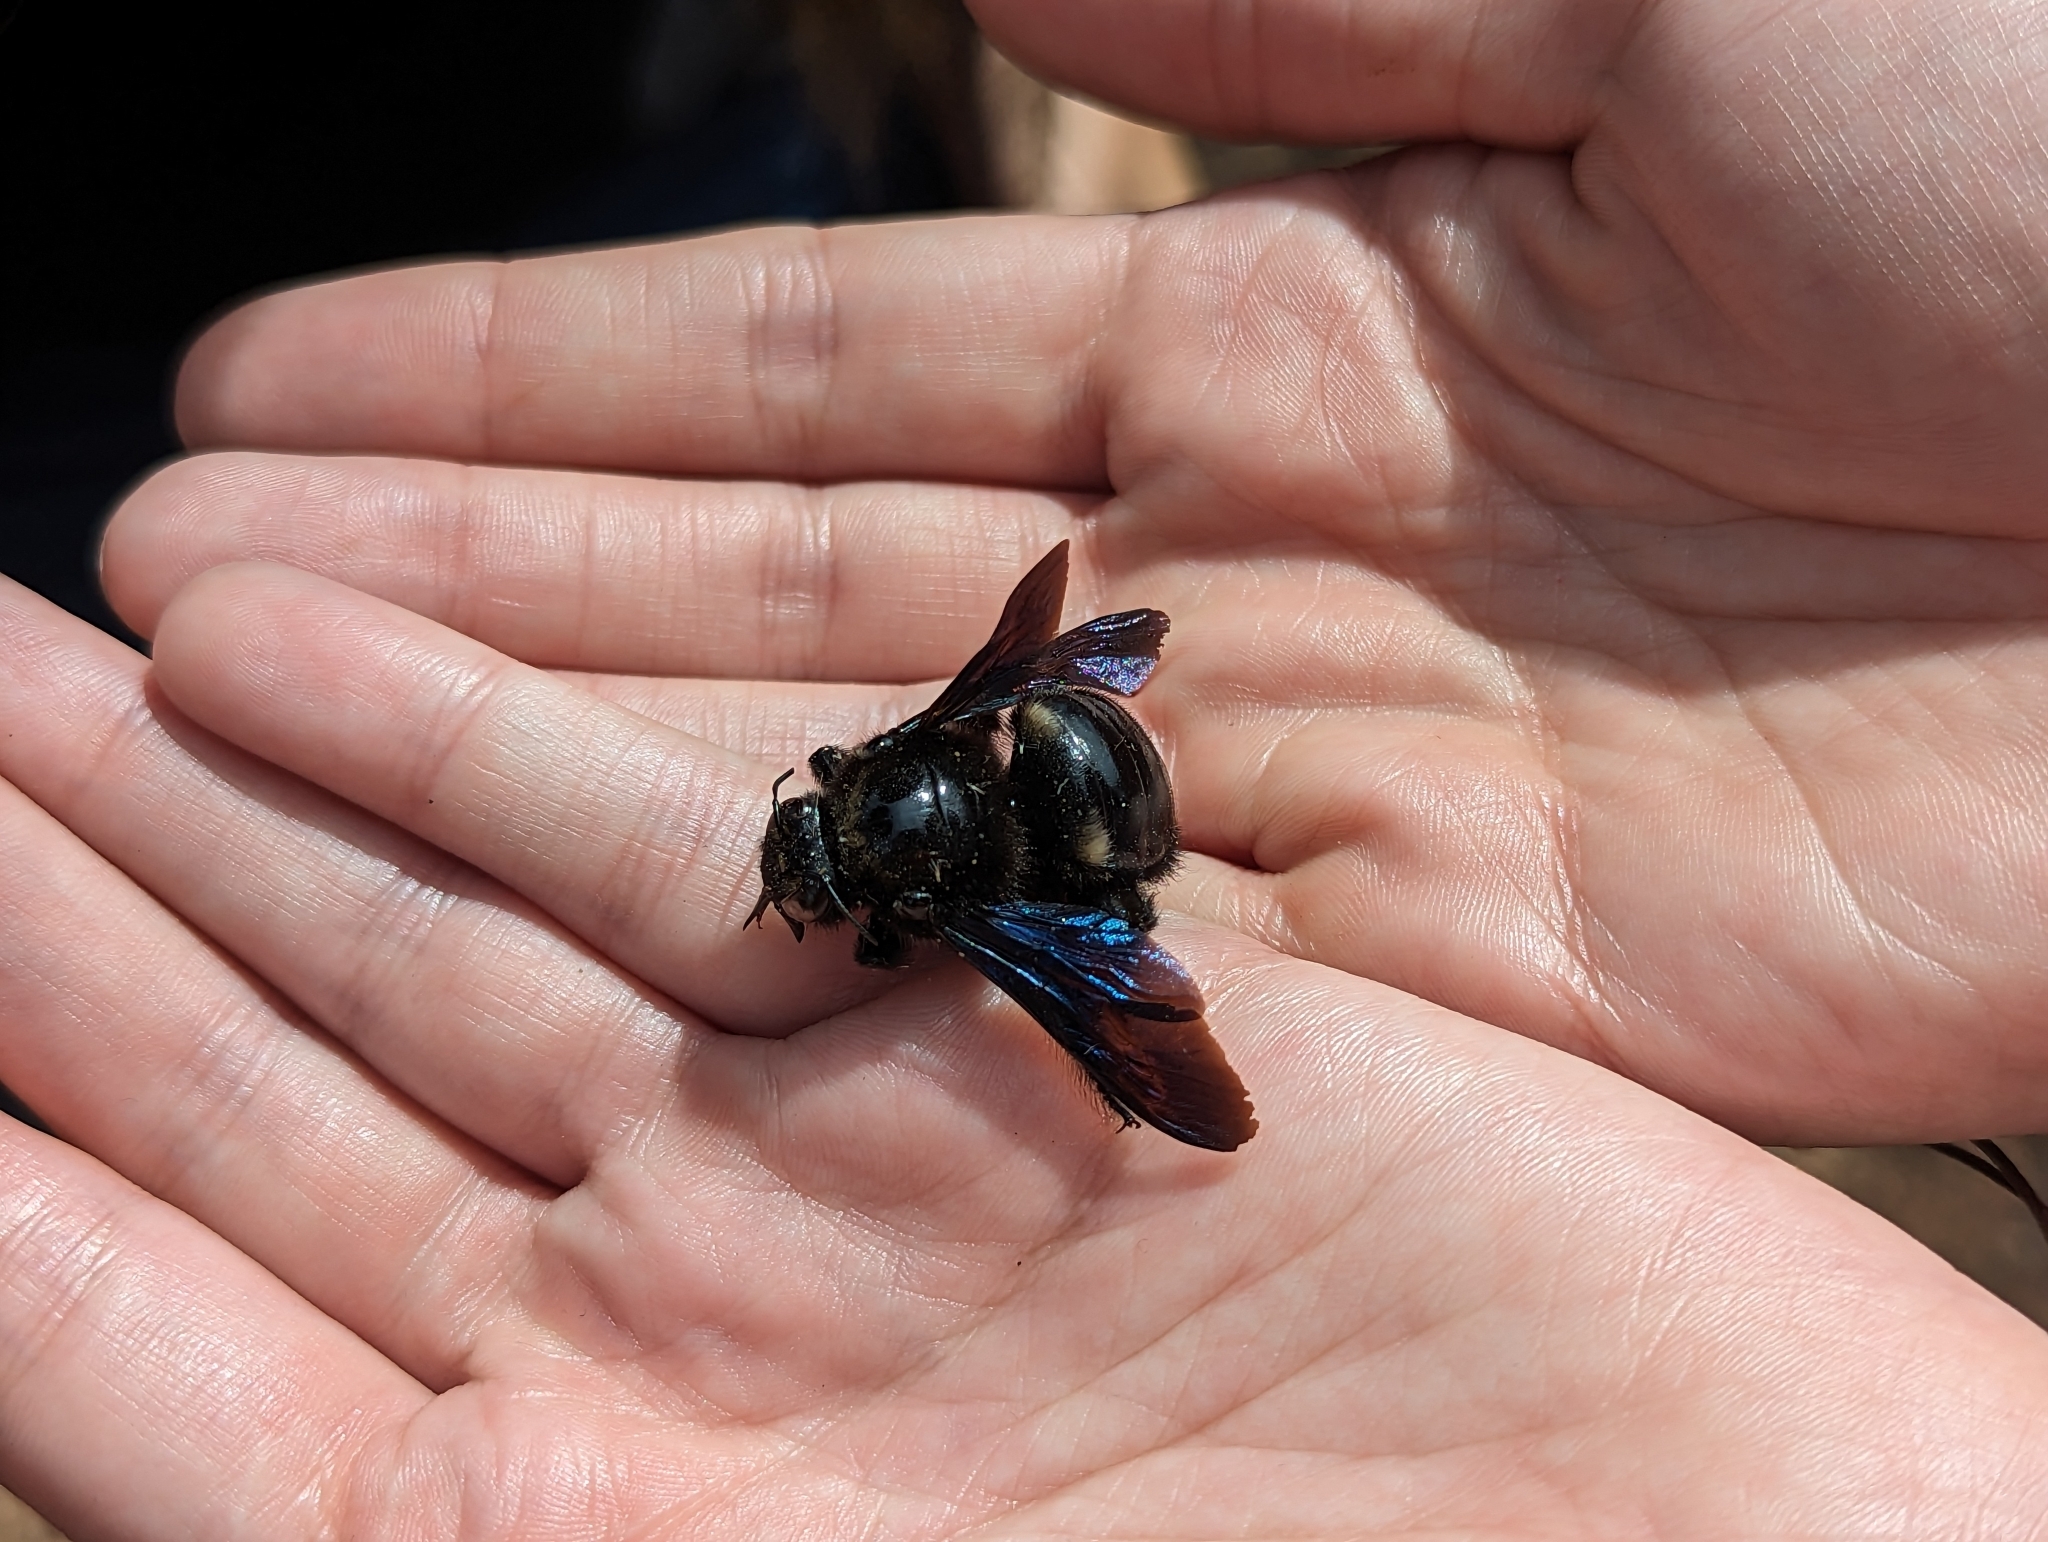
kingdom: Animalia
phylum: Arthropoda
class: Insecta
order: Hymenoptera
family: Apidae
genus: Xylocopa
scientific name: Xylocopa capitata
